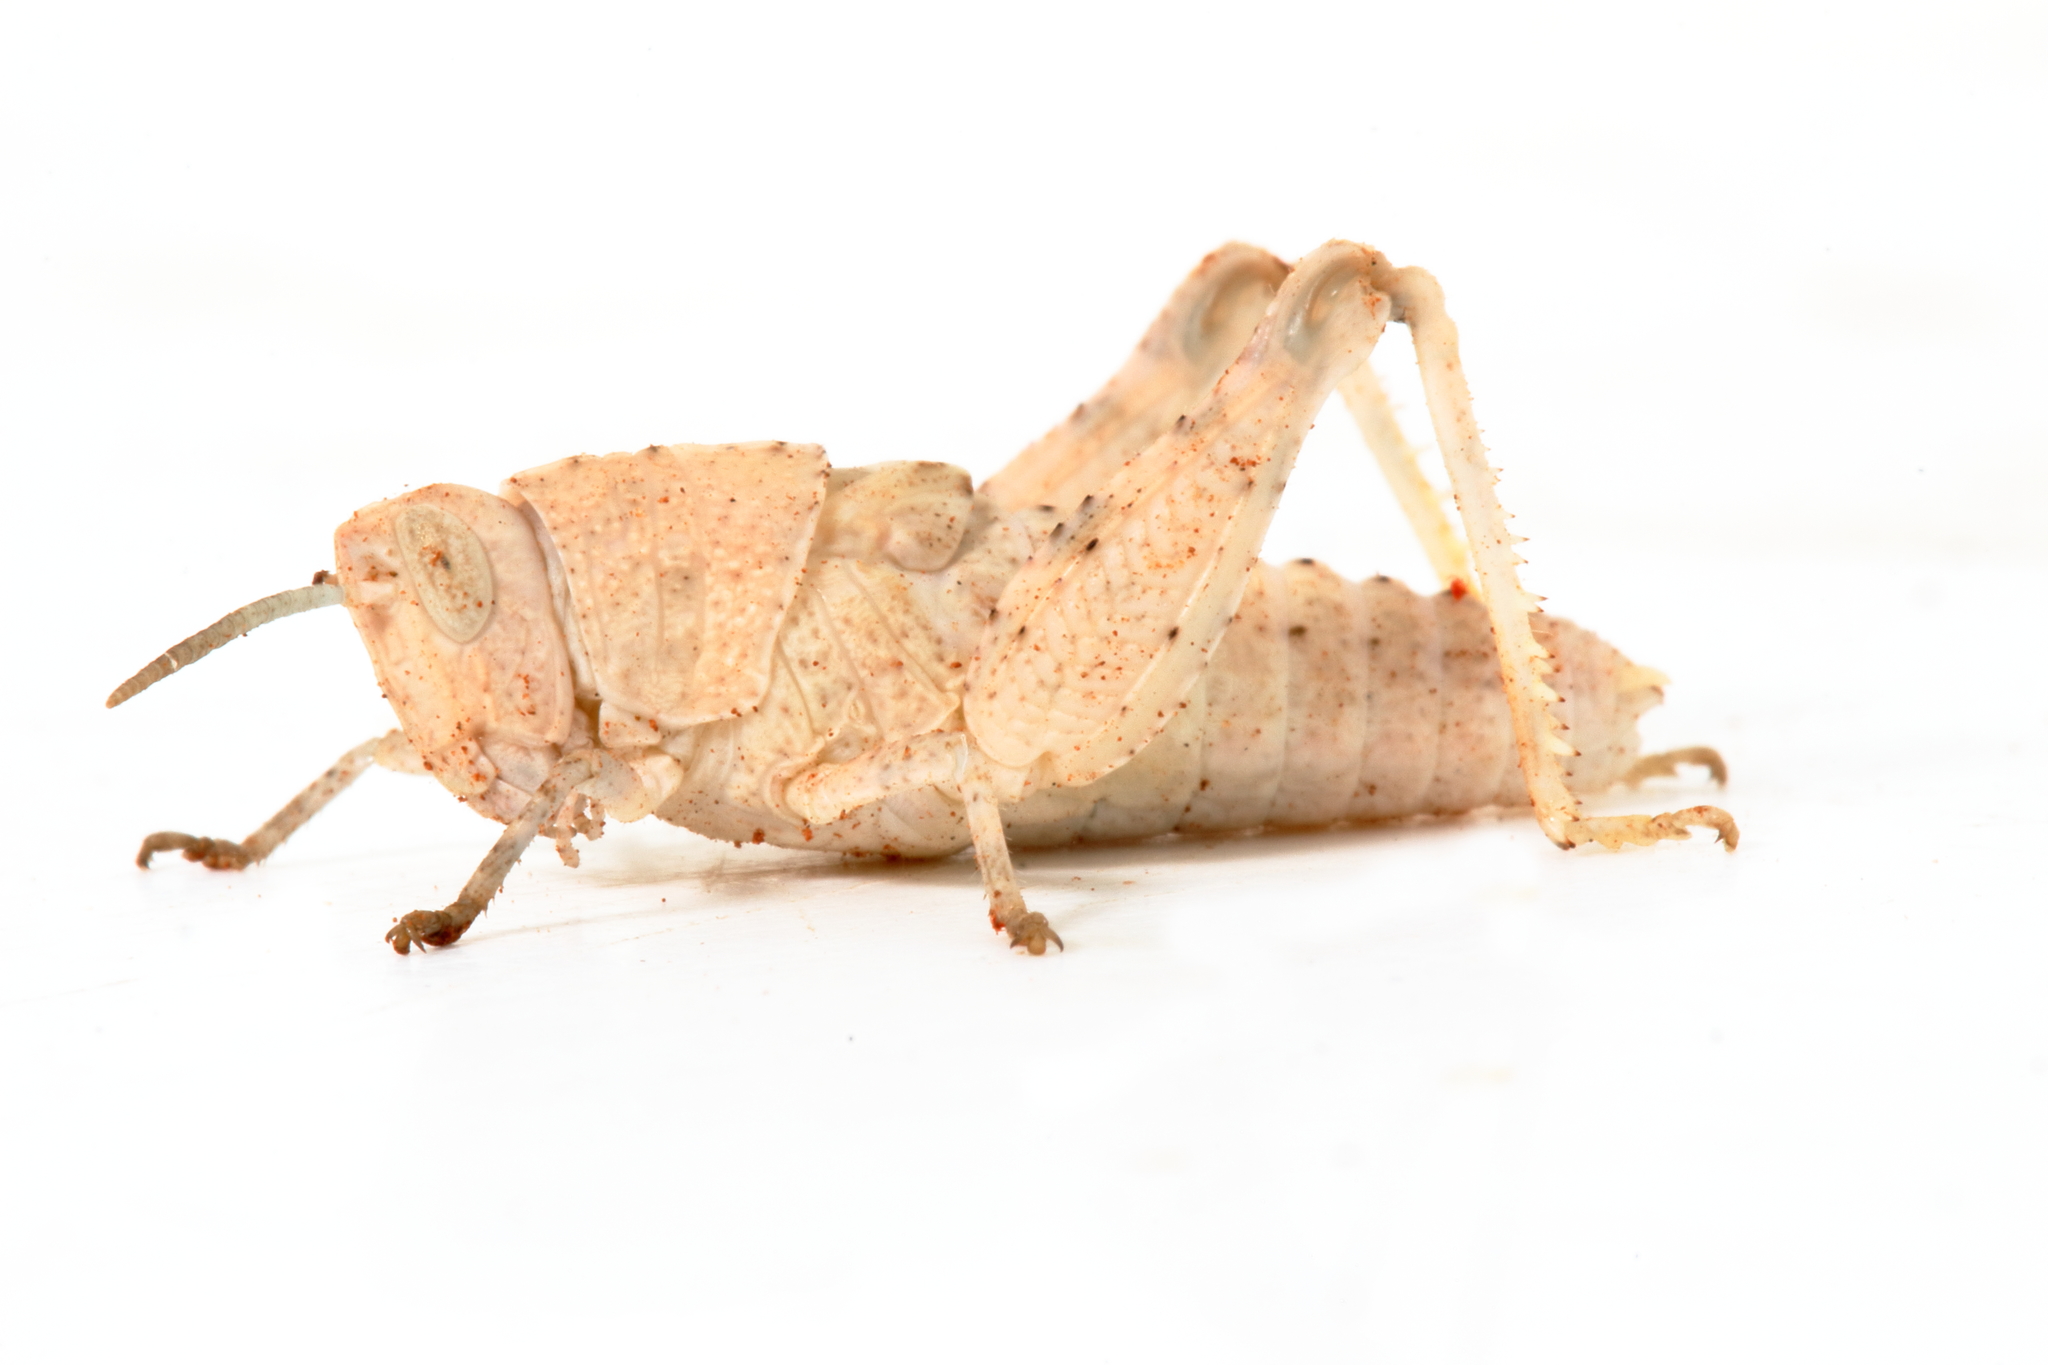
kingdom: Animalia
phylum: Arthropoda
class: Insecta
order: Orthoptera
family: Acrididae
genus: Stropis
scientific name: Stropis maculosa
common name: Leopard grasshopper
